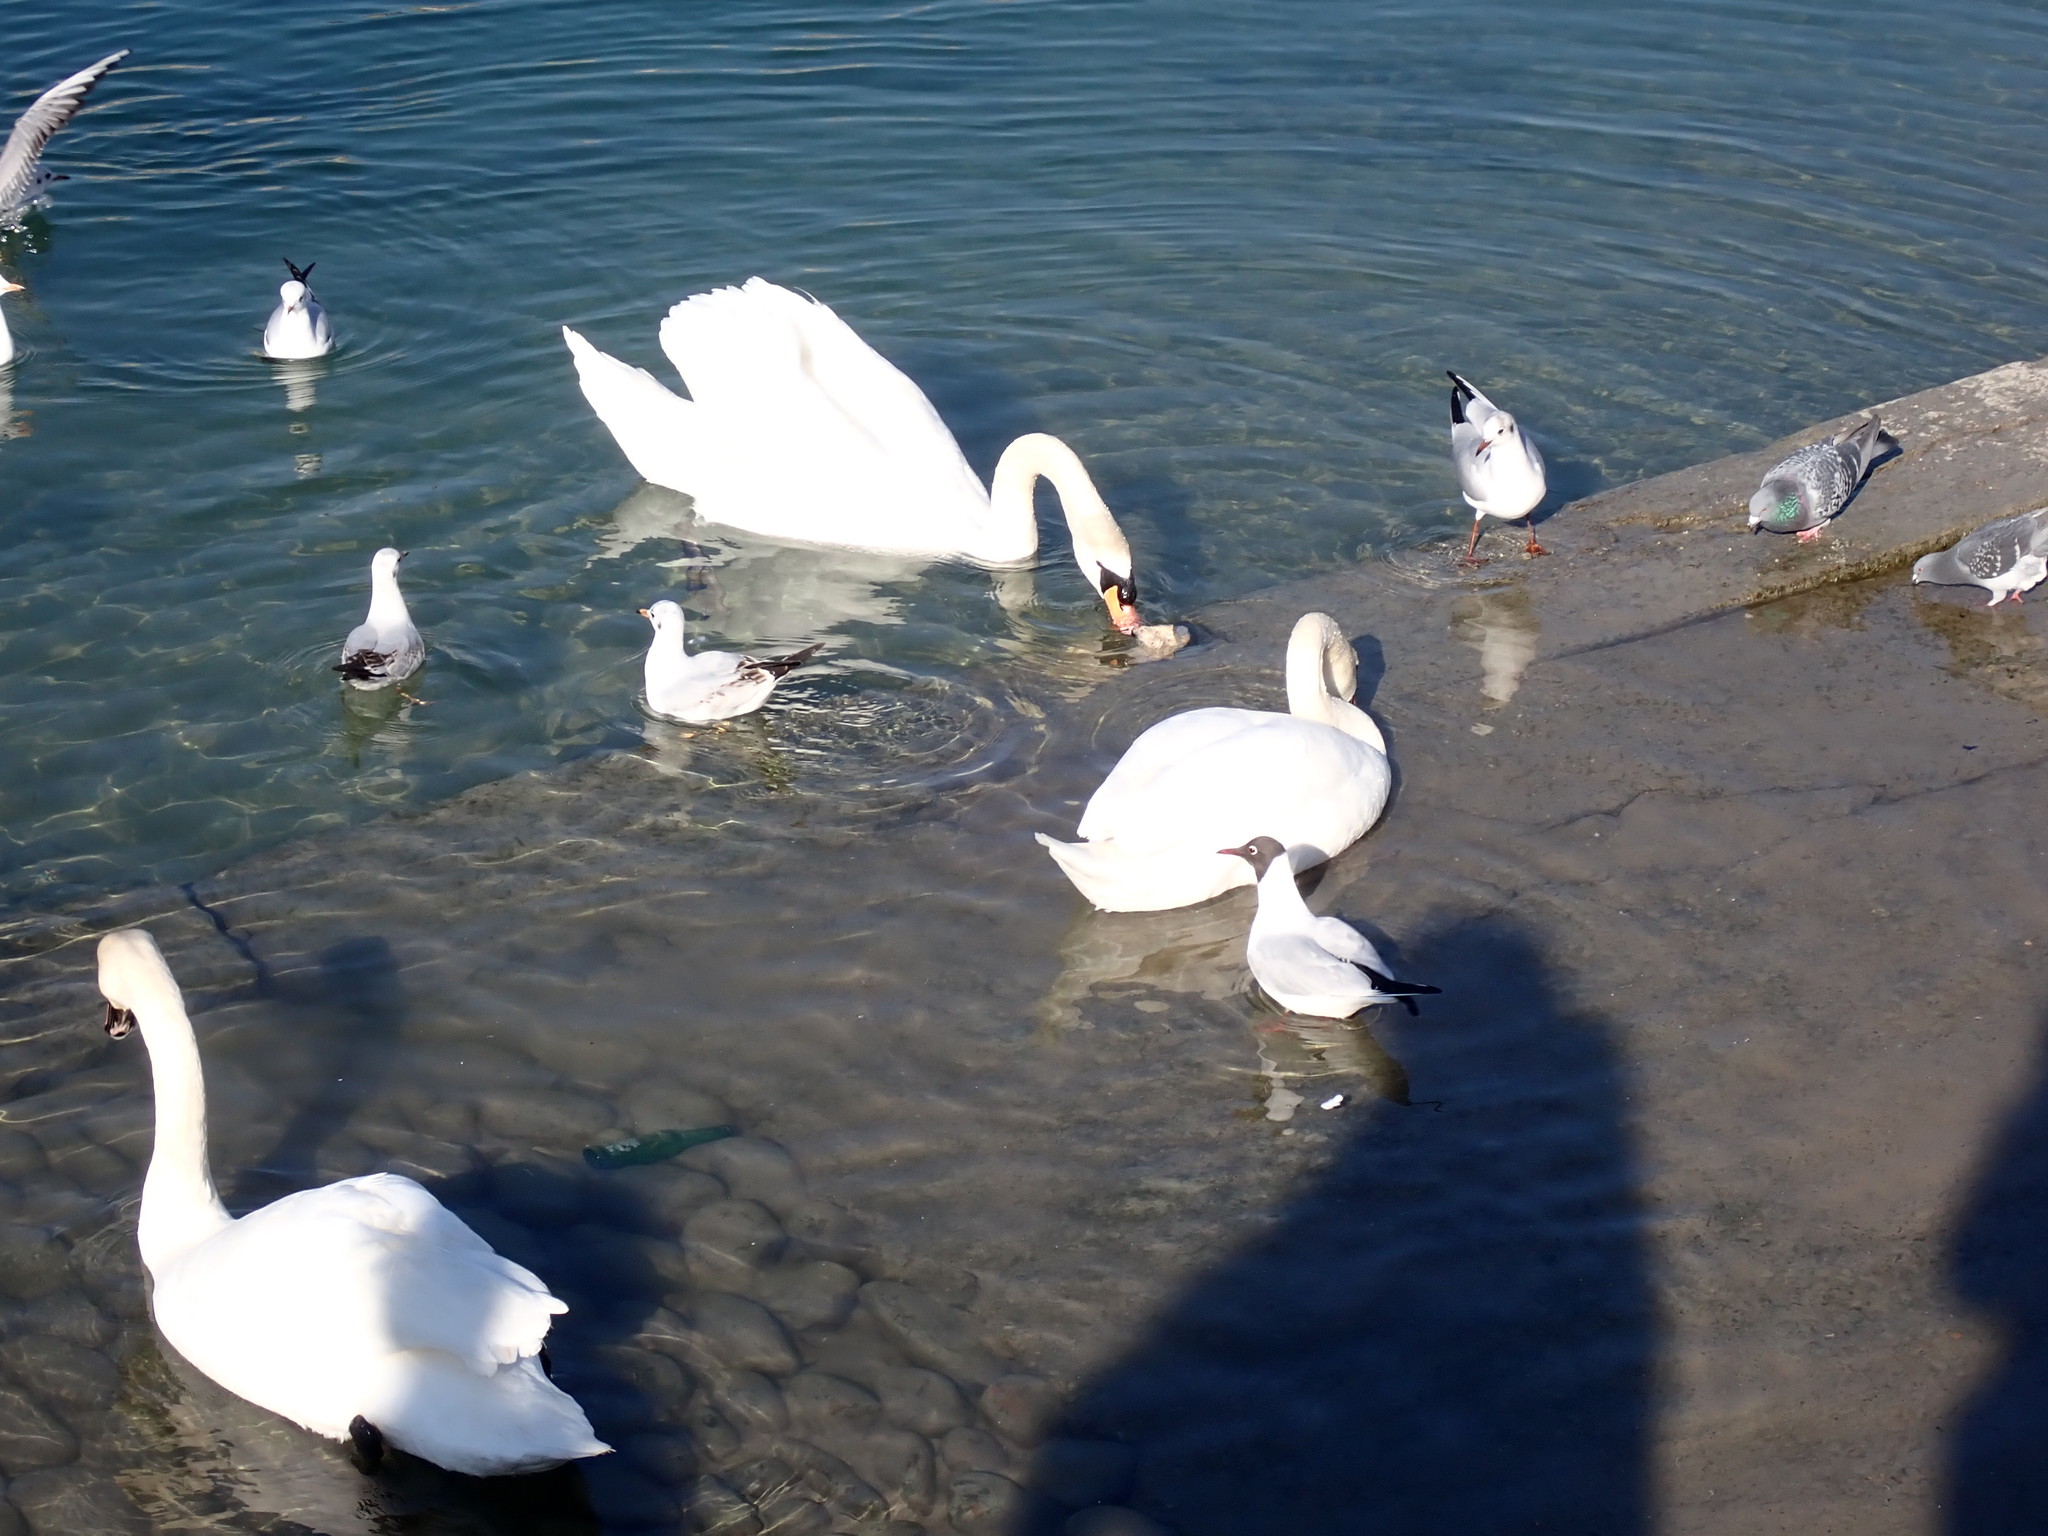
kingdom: Animalia
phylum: Chordata
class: Aves
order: Charadriiformes
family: Laridae
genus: Chroicocephalus
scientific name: Chroicocephalus ridibundus
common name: Black-headed gull
